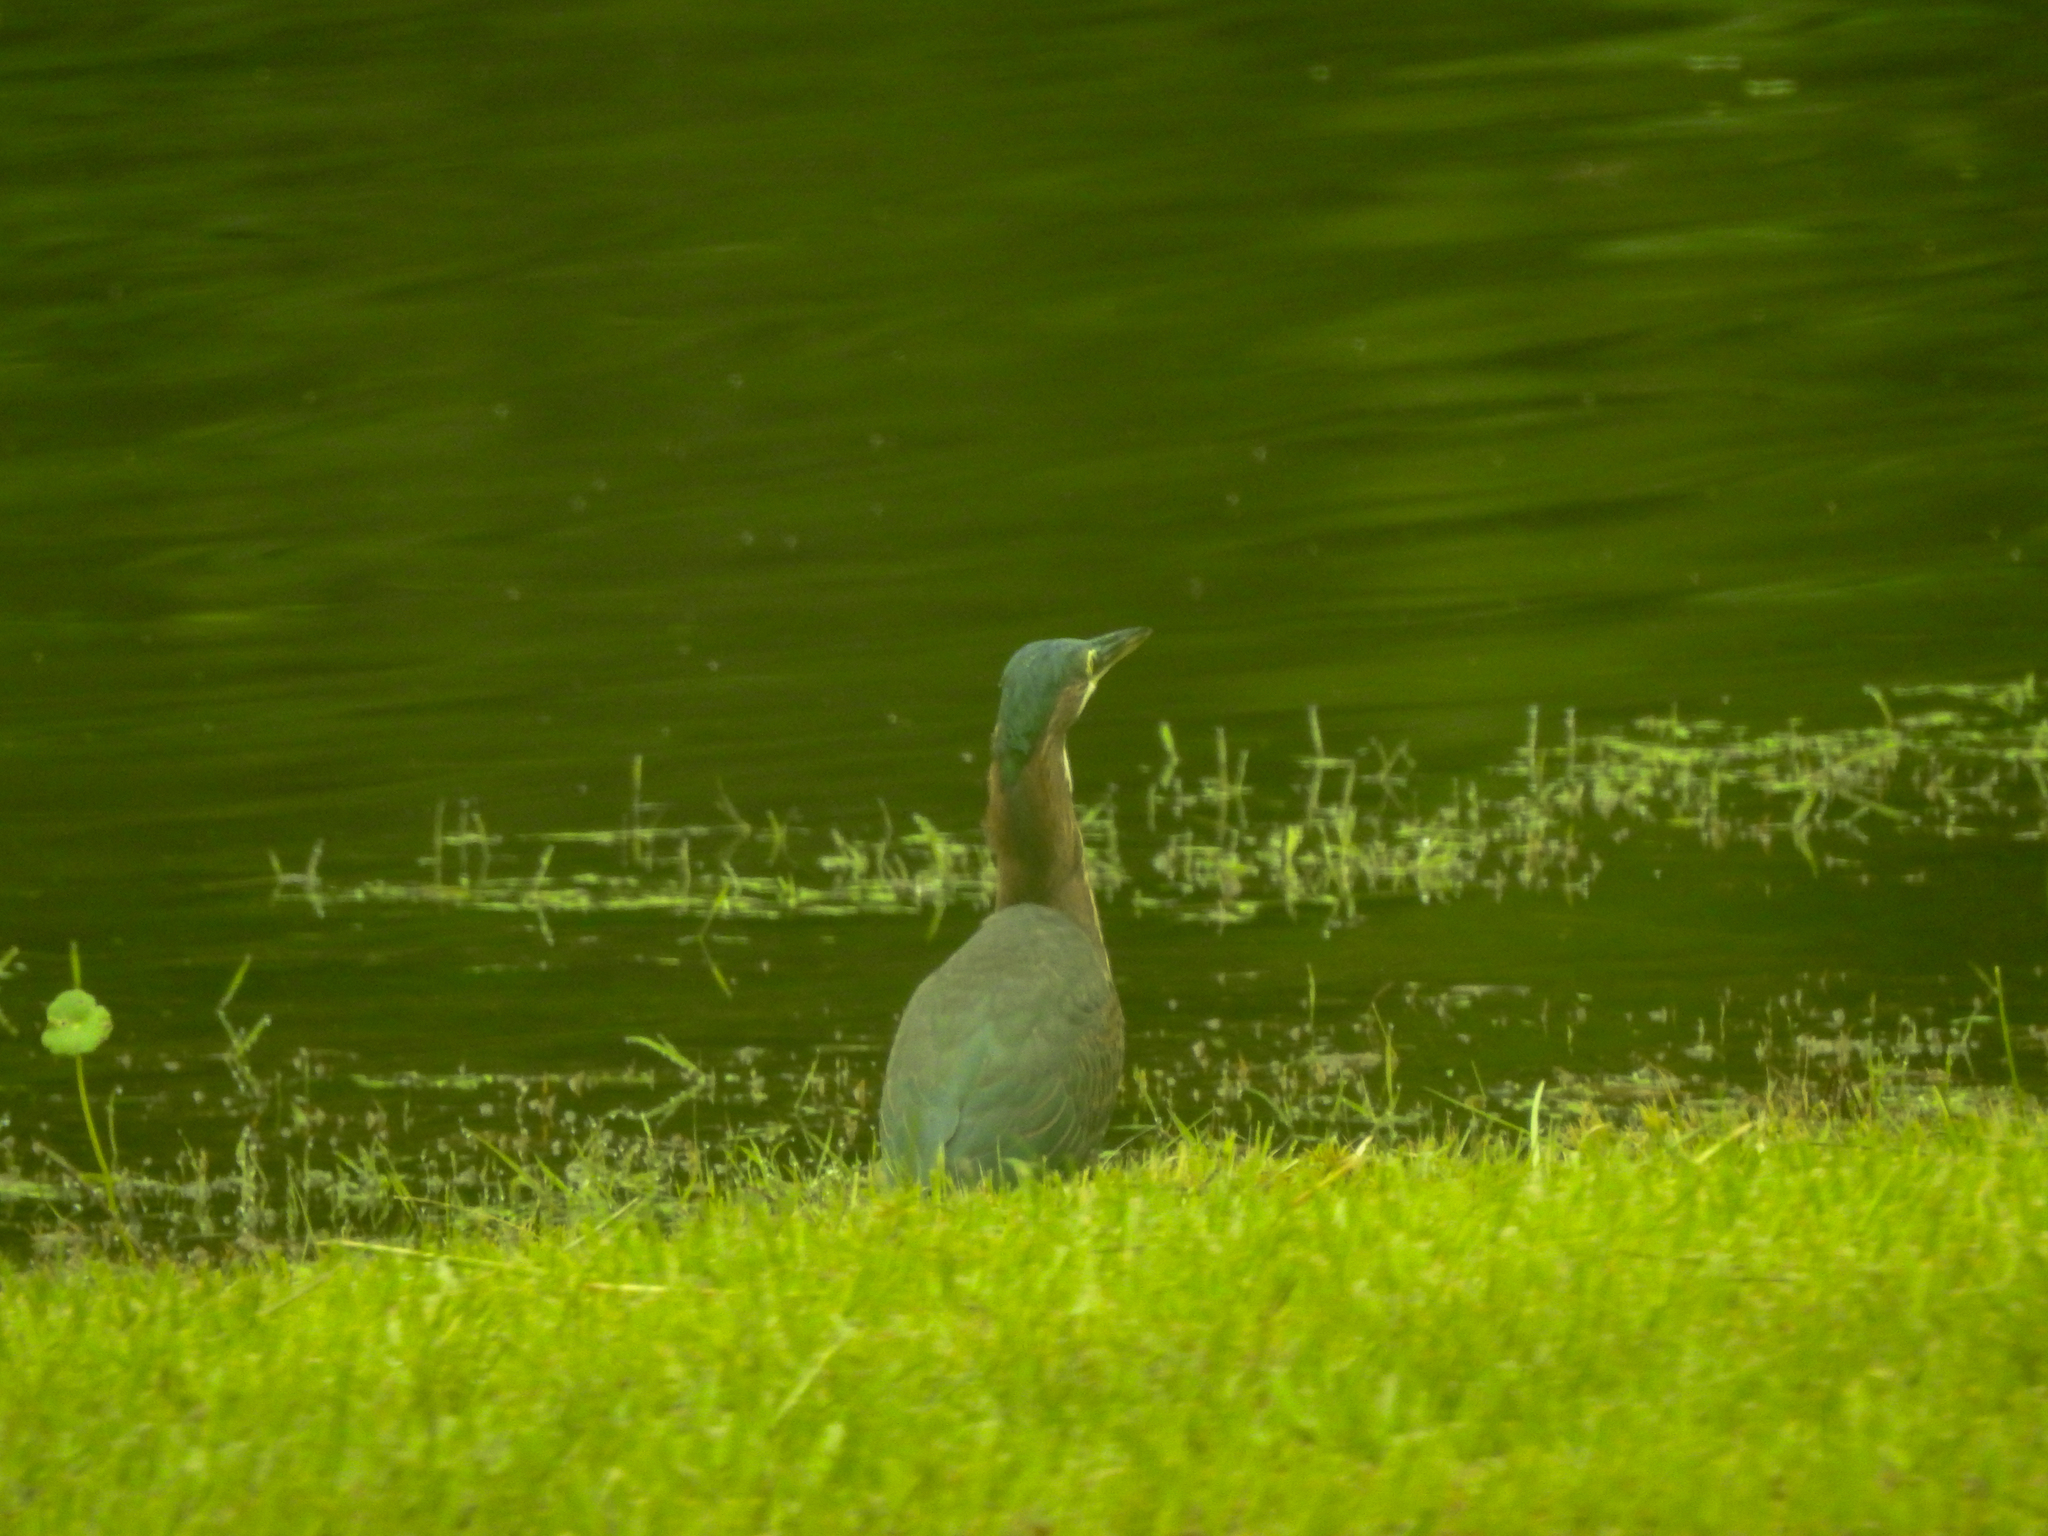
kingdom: Animalia
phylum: Chordata
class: Aves
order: Pelecaniformes
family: Ardeidae
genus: Butorides
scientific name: Butorides virescens
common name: Green heron
